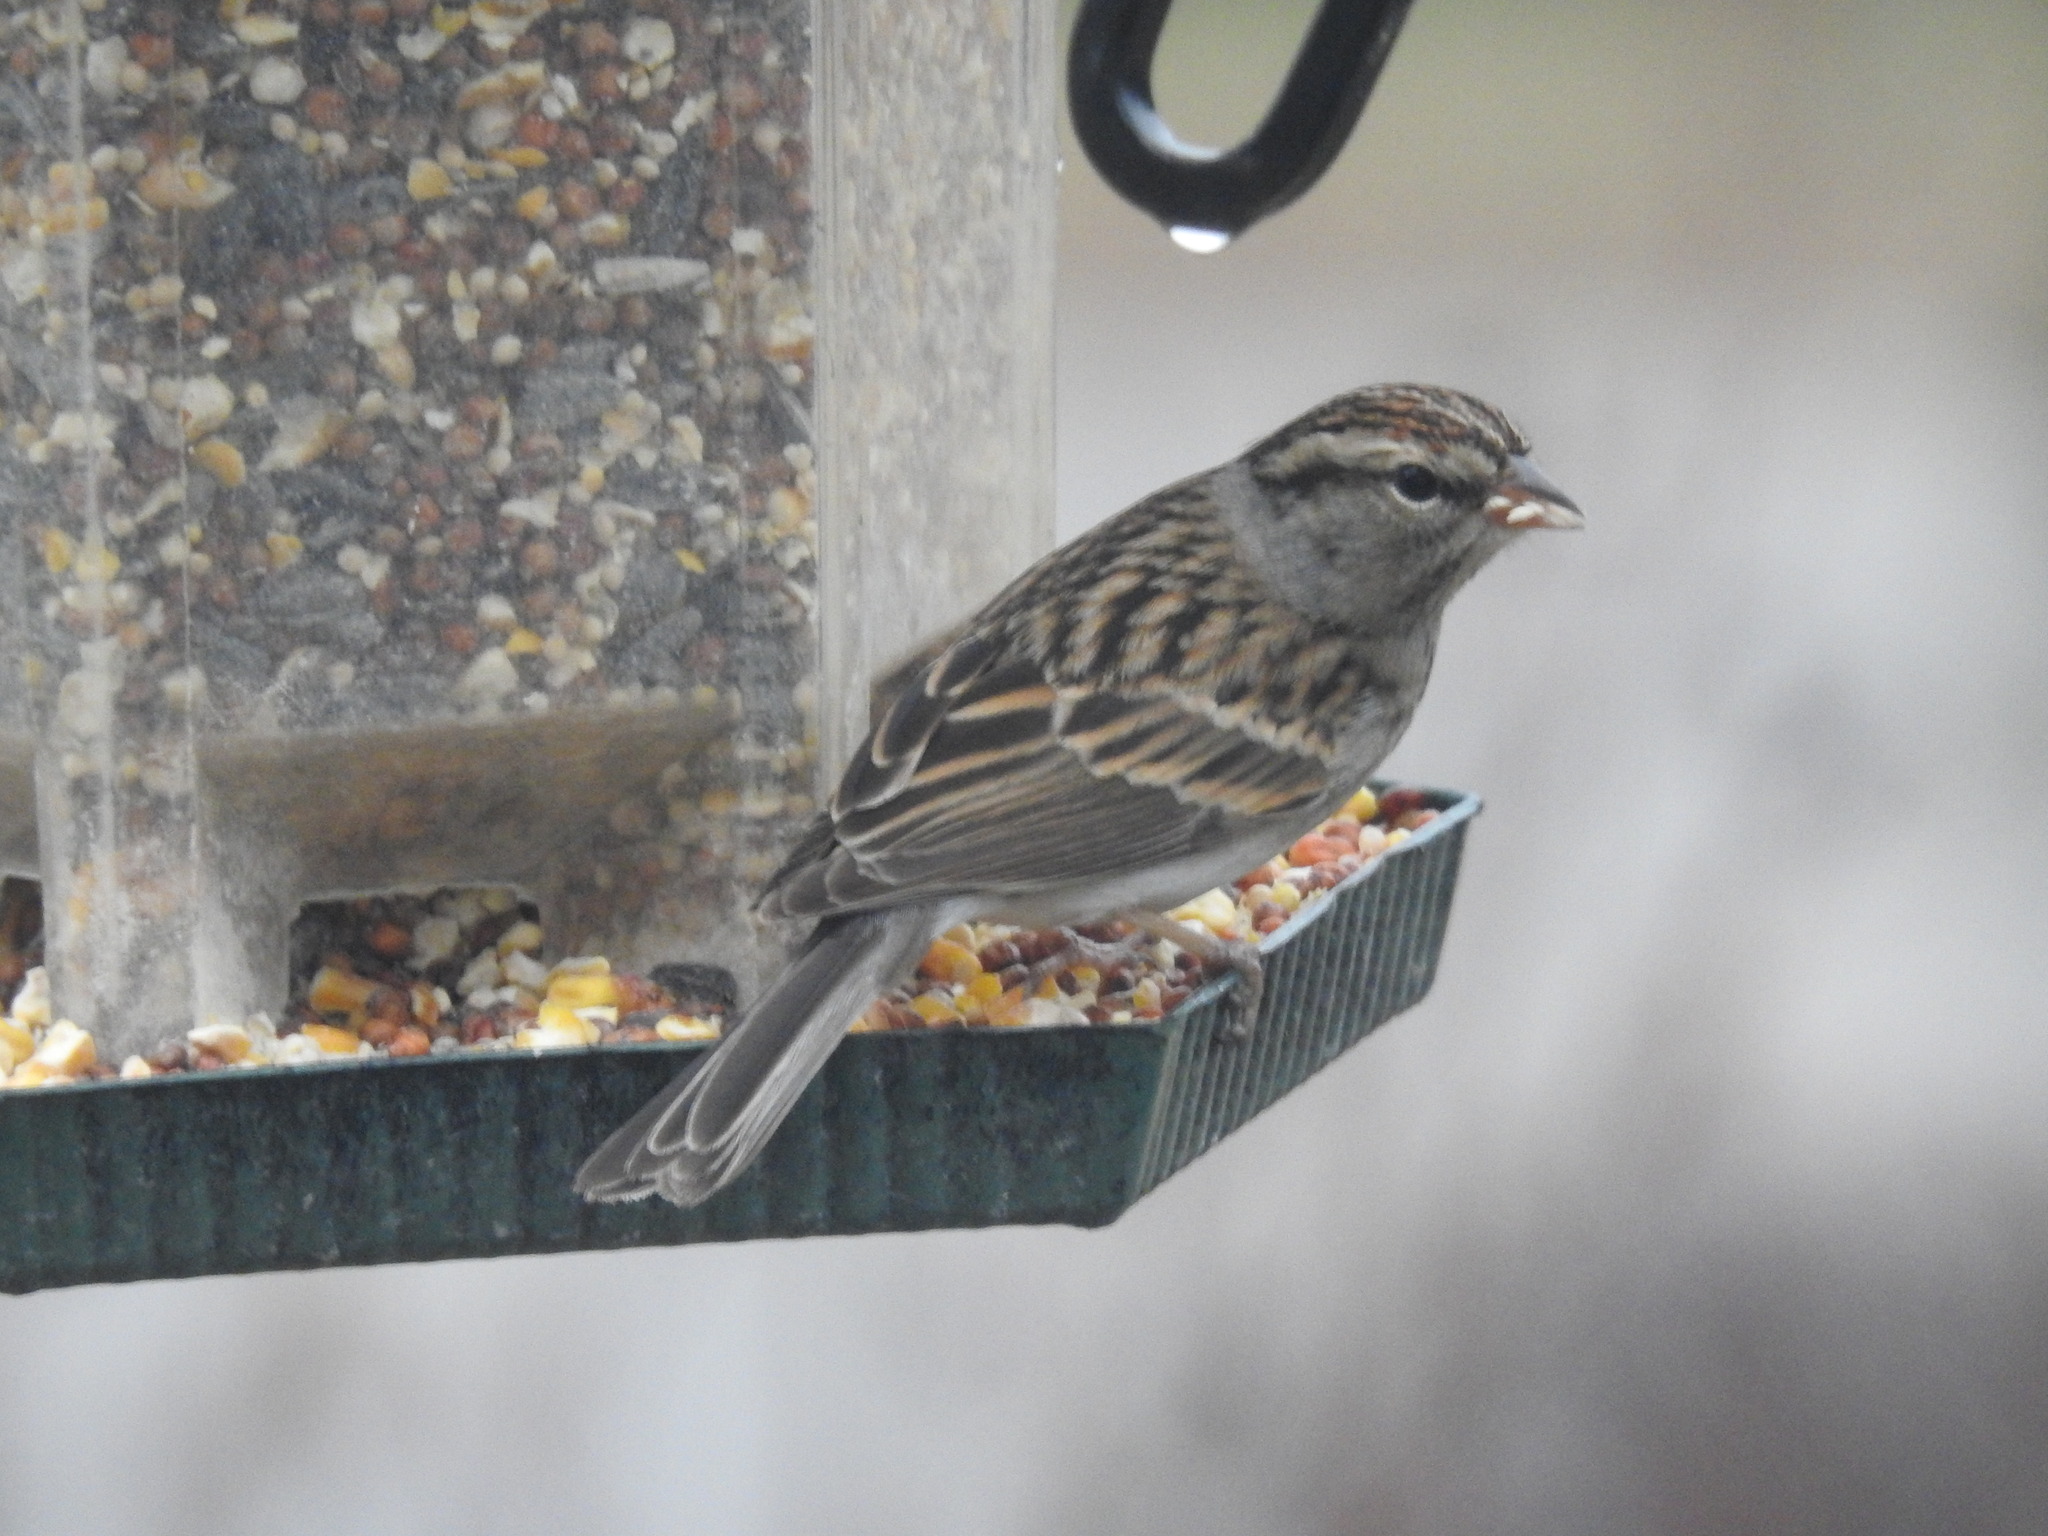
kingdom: Animalia
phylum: Chordata
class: Aves
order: Passeriformes
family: Passerellidae
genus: Spizella
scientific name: Spizella passerina
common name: Chipping sparrow
